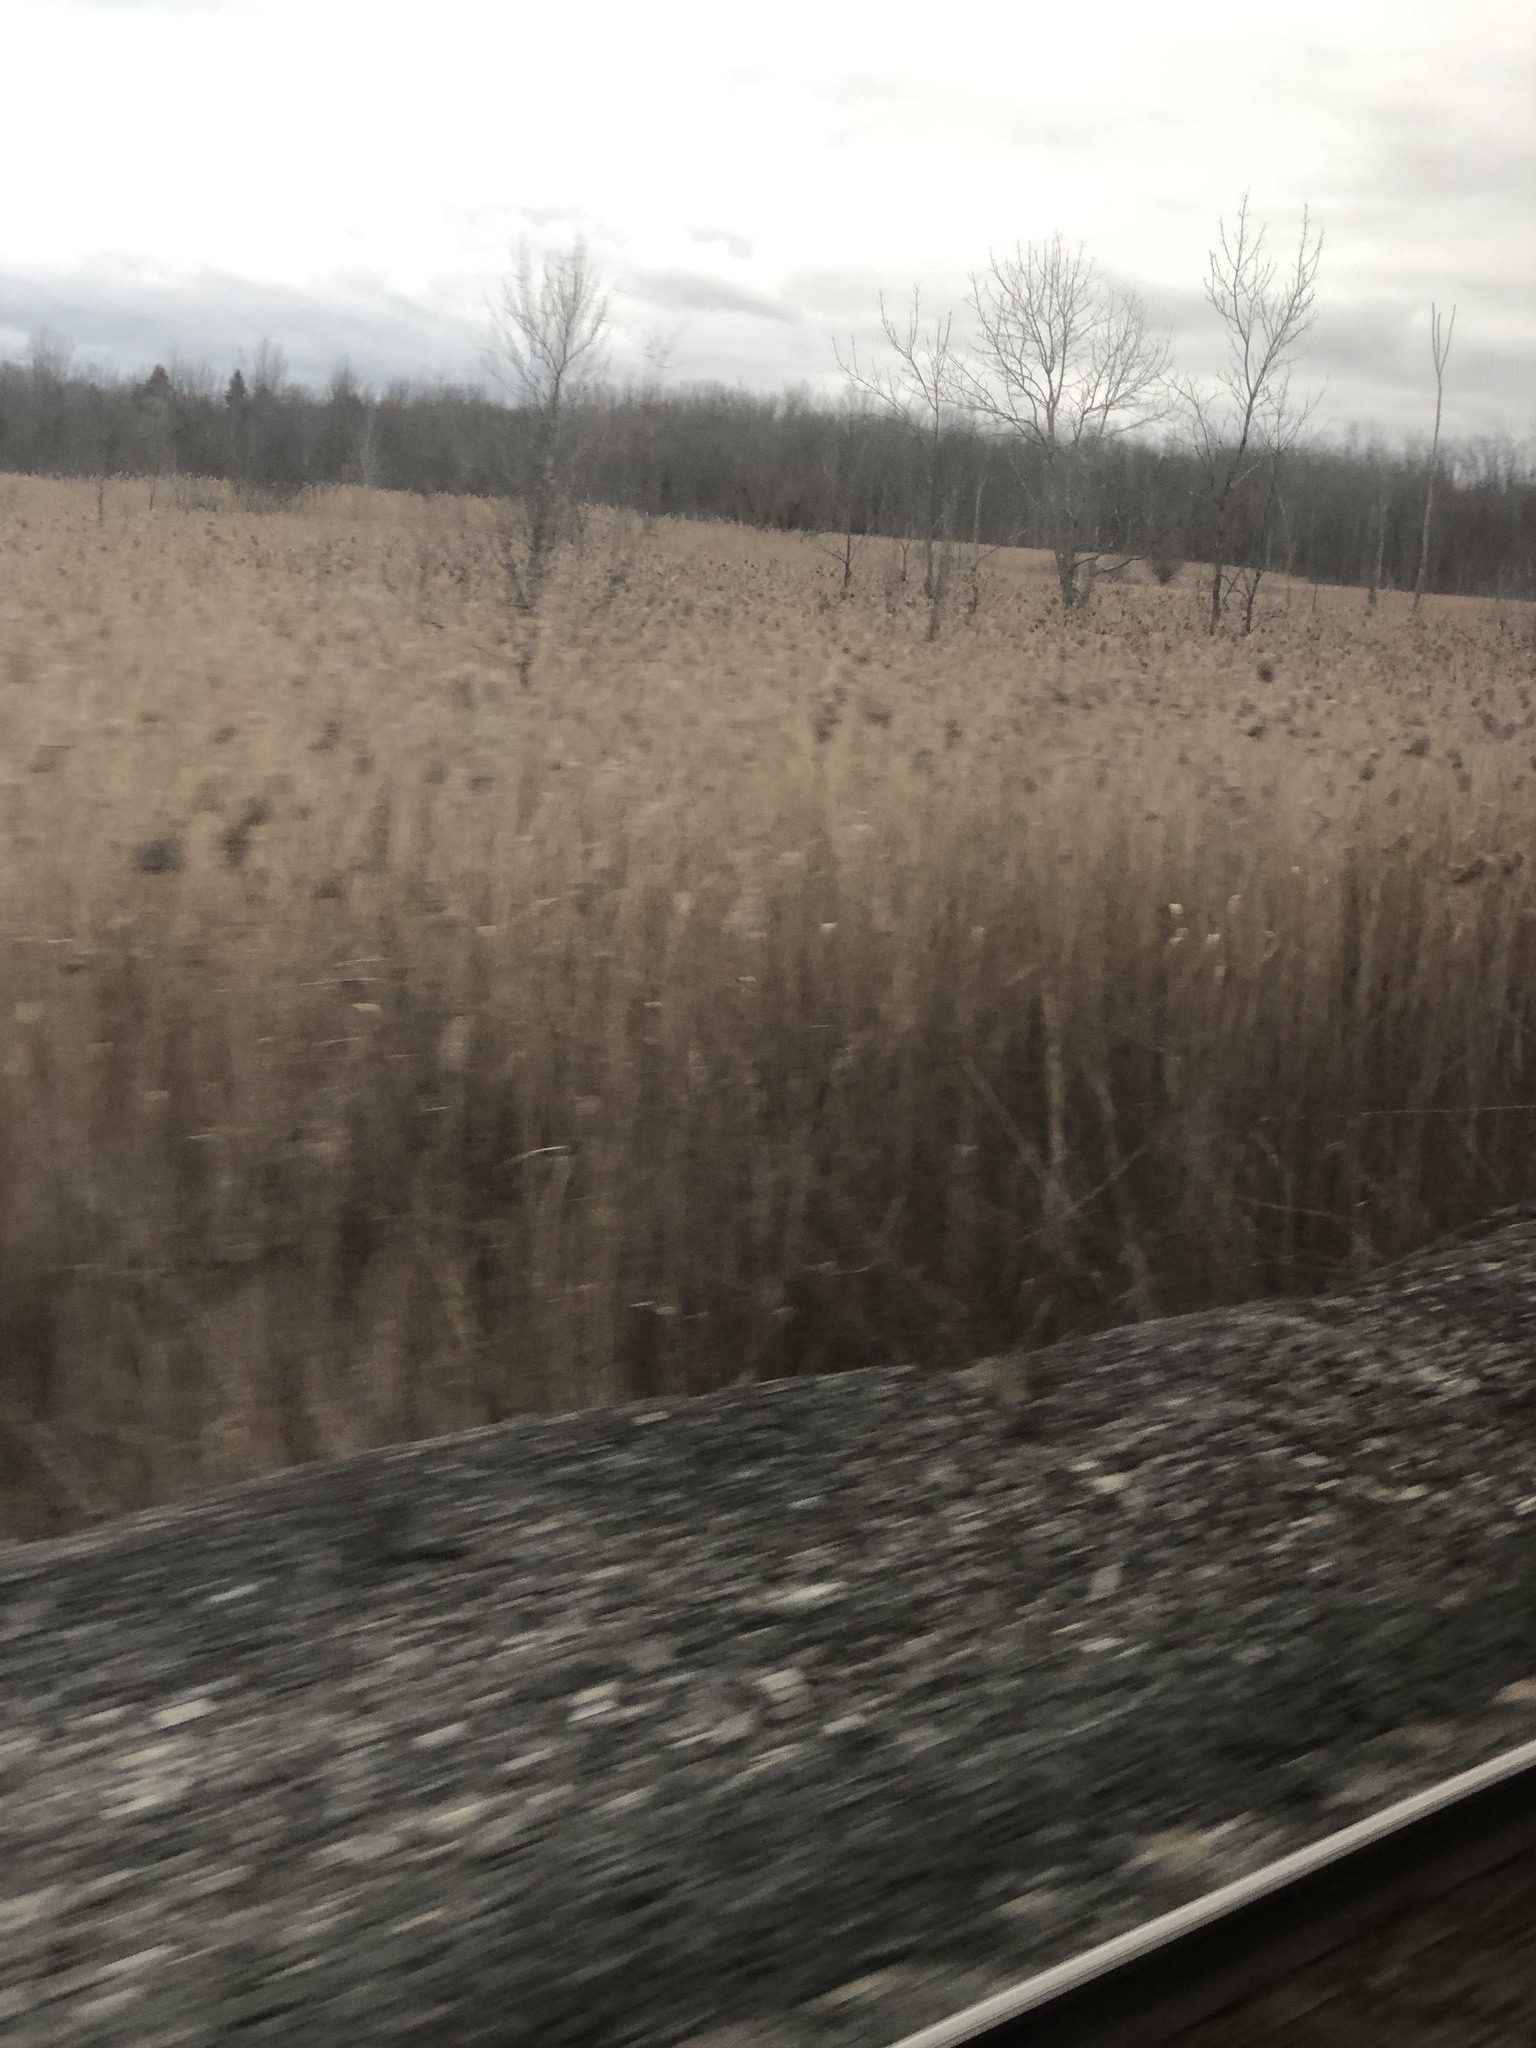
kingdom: Plantae
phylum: Tracheophyta
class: Liliopsida
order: Poales
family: Poaceae
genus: Phragmites
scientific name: Phragmites australis
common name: Common reed
